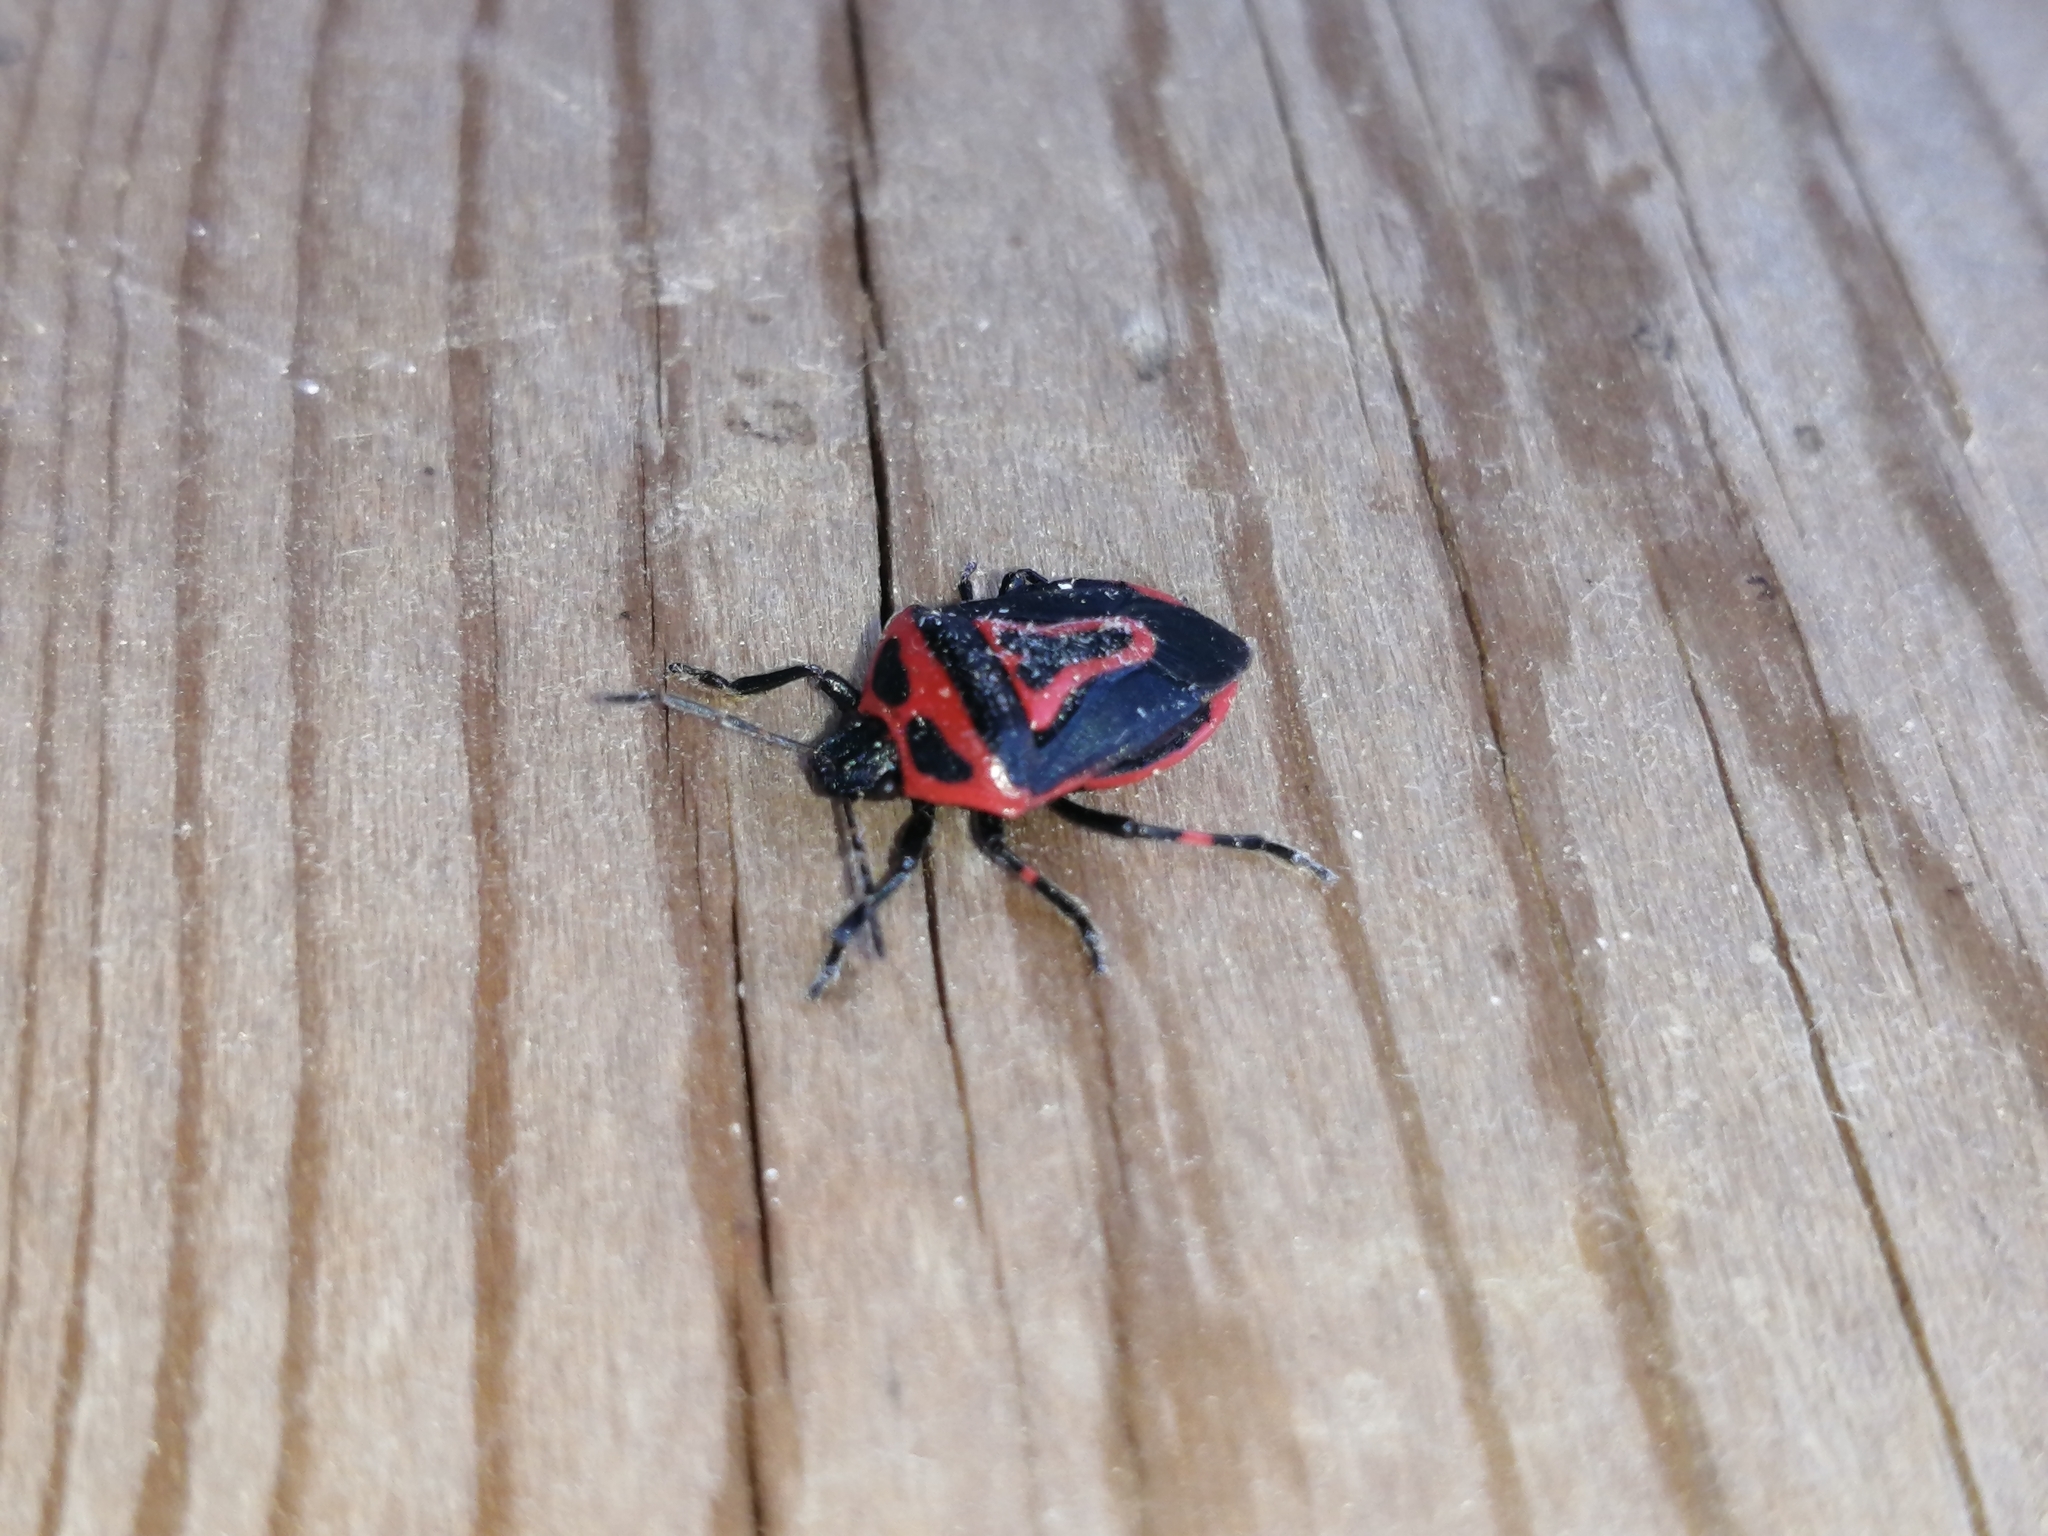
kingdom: Animalia
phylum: Arthropoda
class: Insecta
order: Hemiptera
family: Pentatomidae
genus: Perillus
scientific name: Perillus bioculatus
